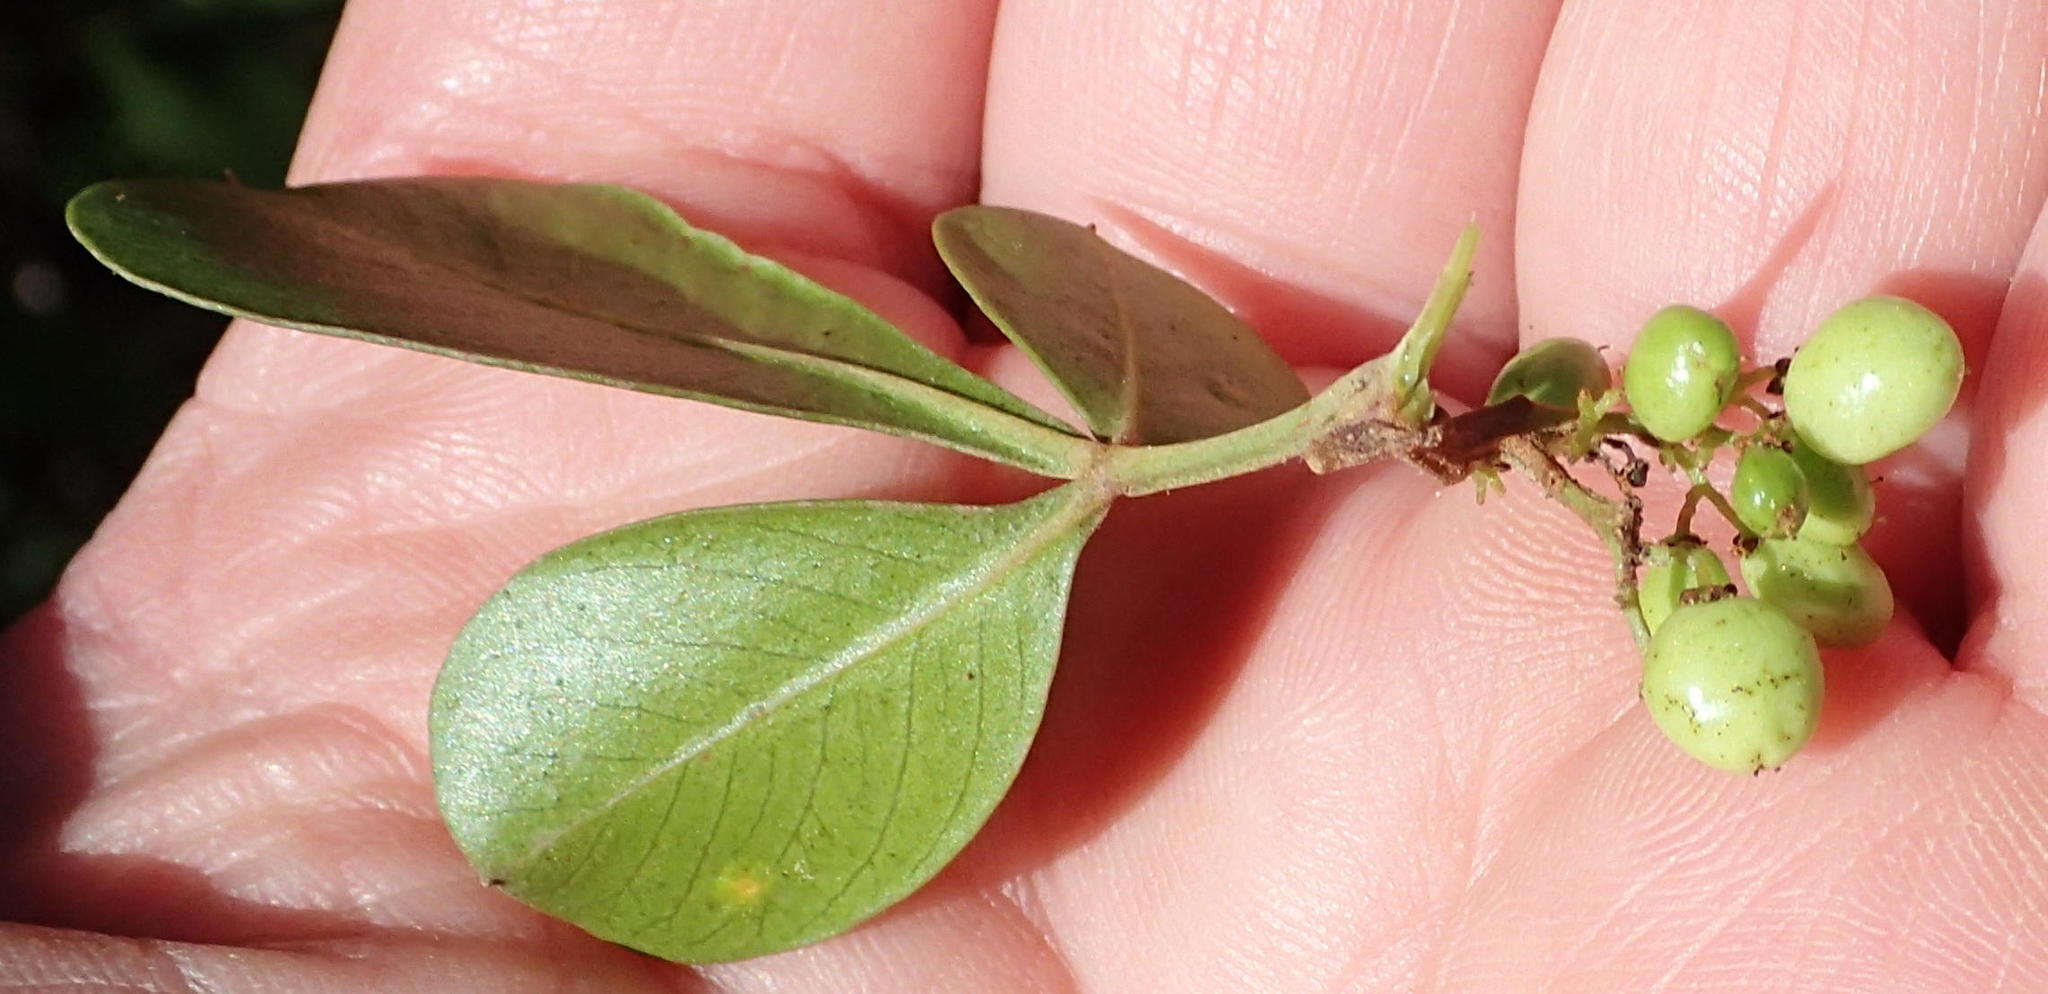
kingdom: Plantae
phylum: Tracheophyta
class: Magnoliopsida
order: Sapindales
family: Anacardiaceae
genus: Searsia
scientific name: Searsia glauca
